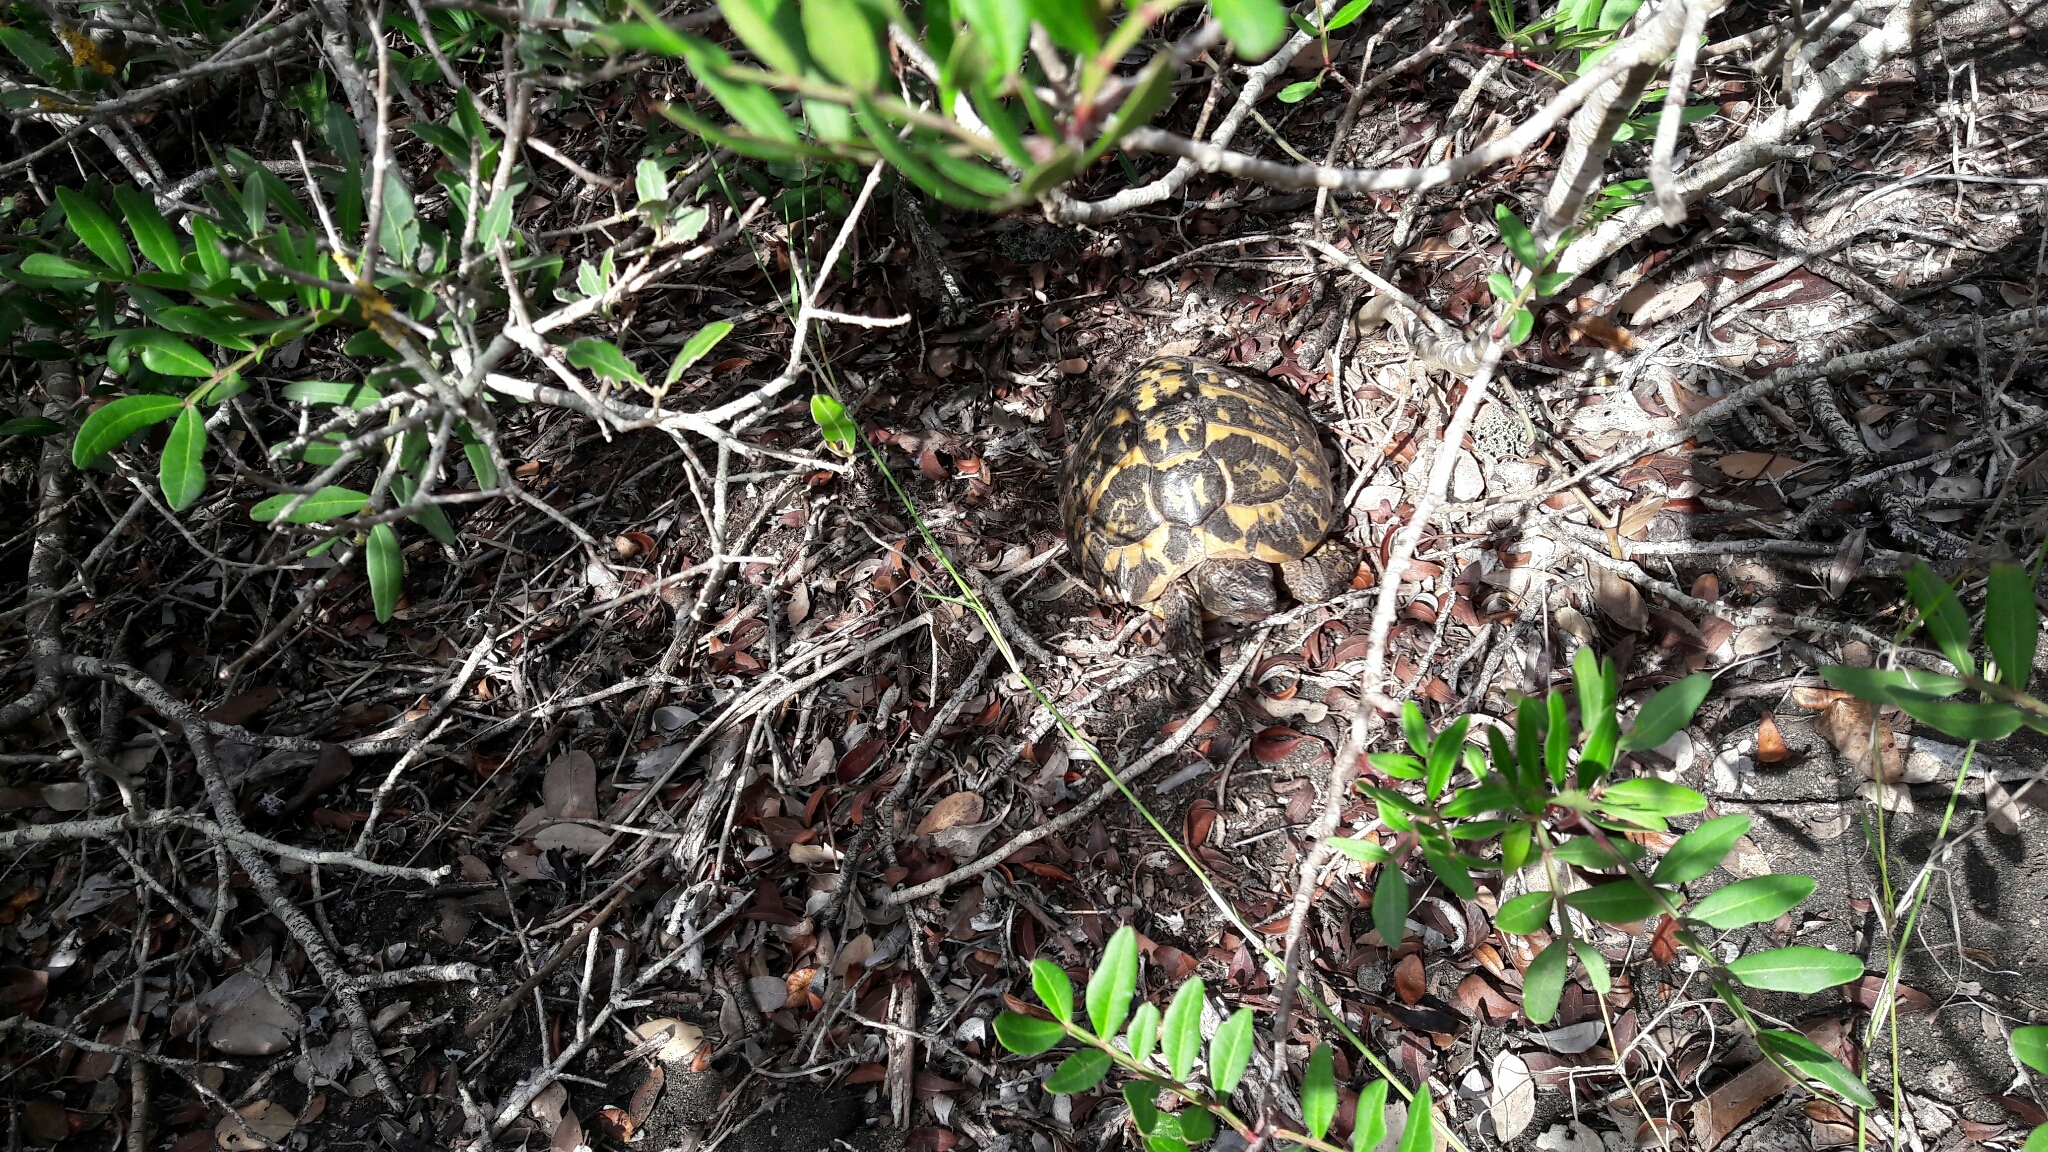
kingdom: Animalia
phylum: Chordata
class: Testudines
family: Testudinidae
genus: Testudo
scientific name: Testudo hermanni
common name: Hermann's tortoise
